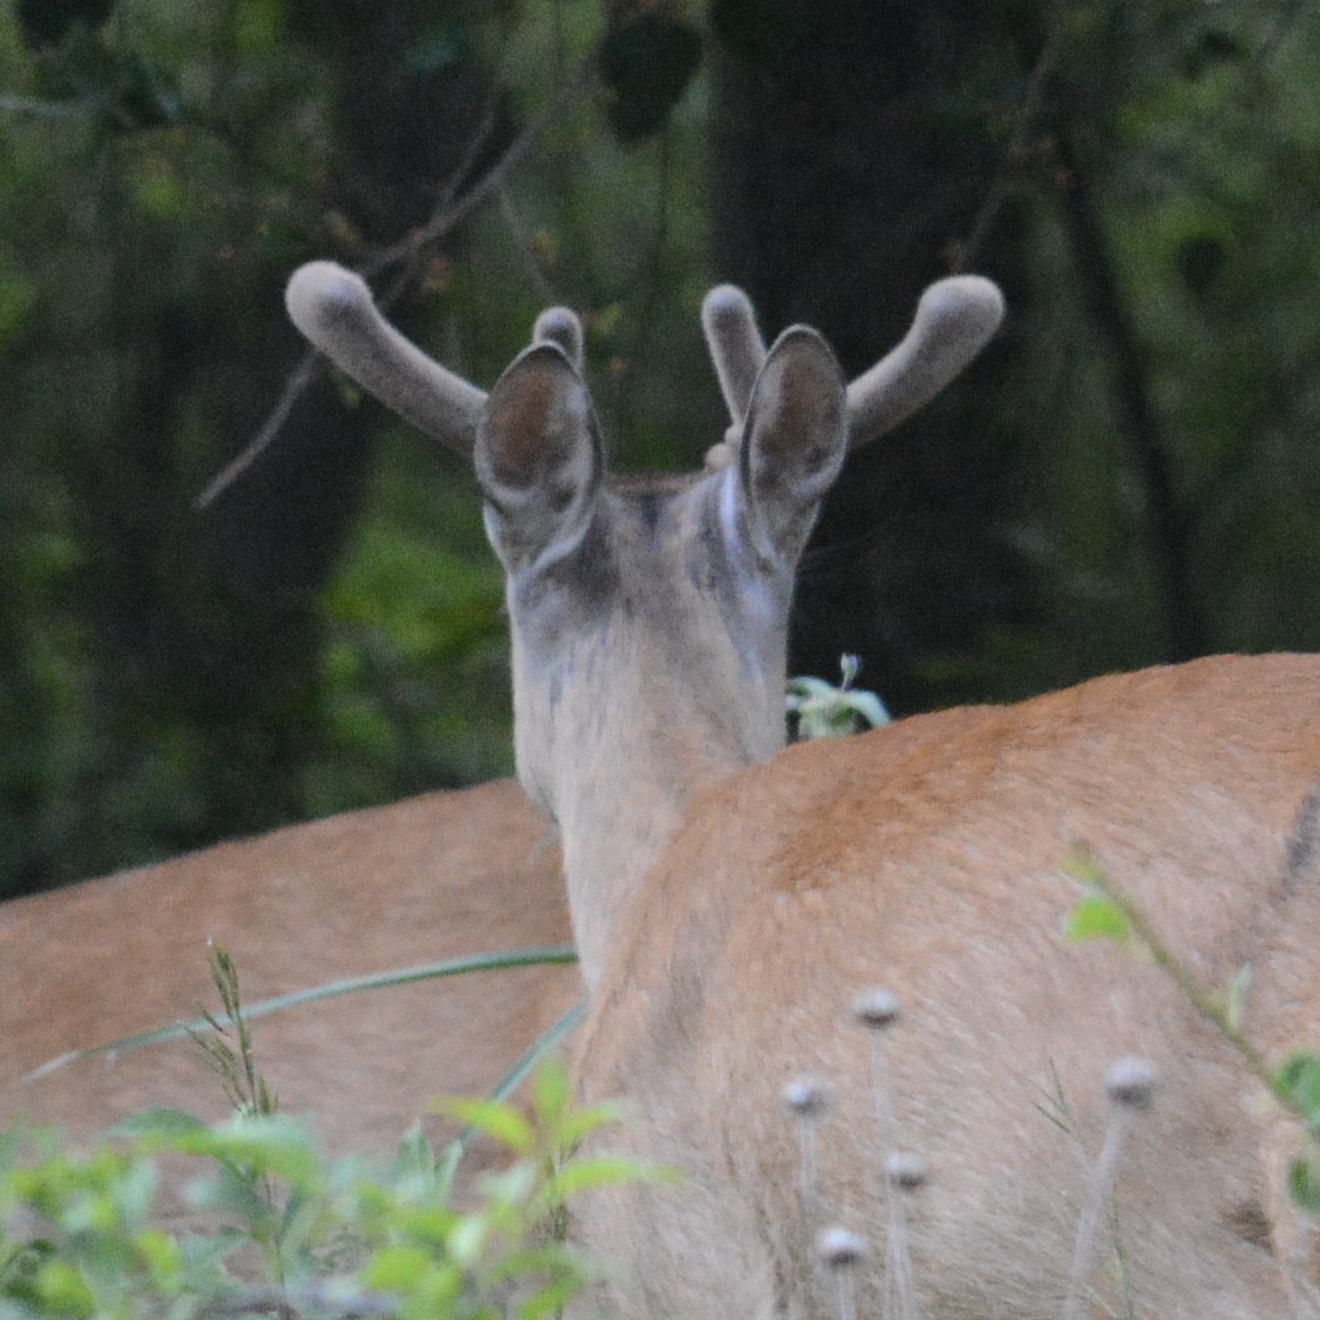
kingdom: Animalia
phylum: Chordata
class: Mammalia
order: Artiodactyla
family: Cervidae
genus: Odocoileus
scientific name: Odocoileus virginianus
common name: White-tailed deer
